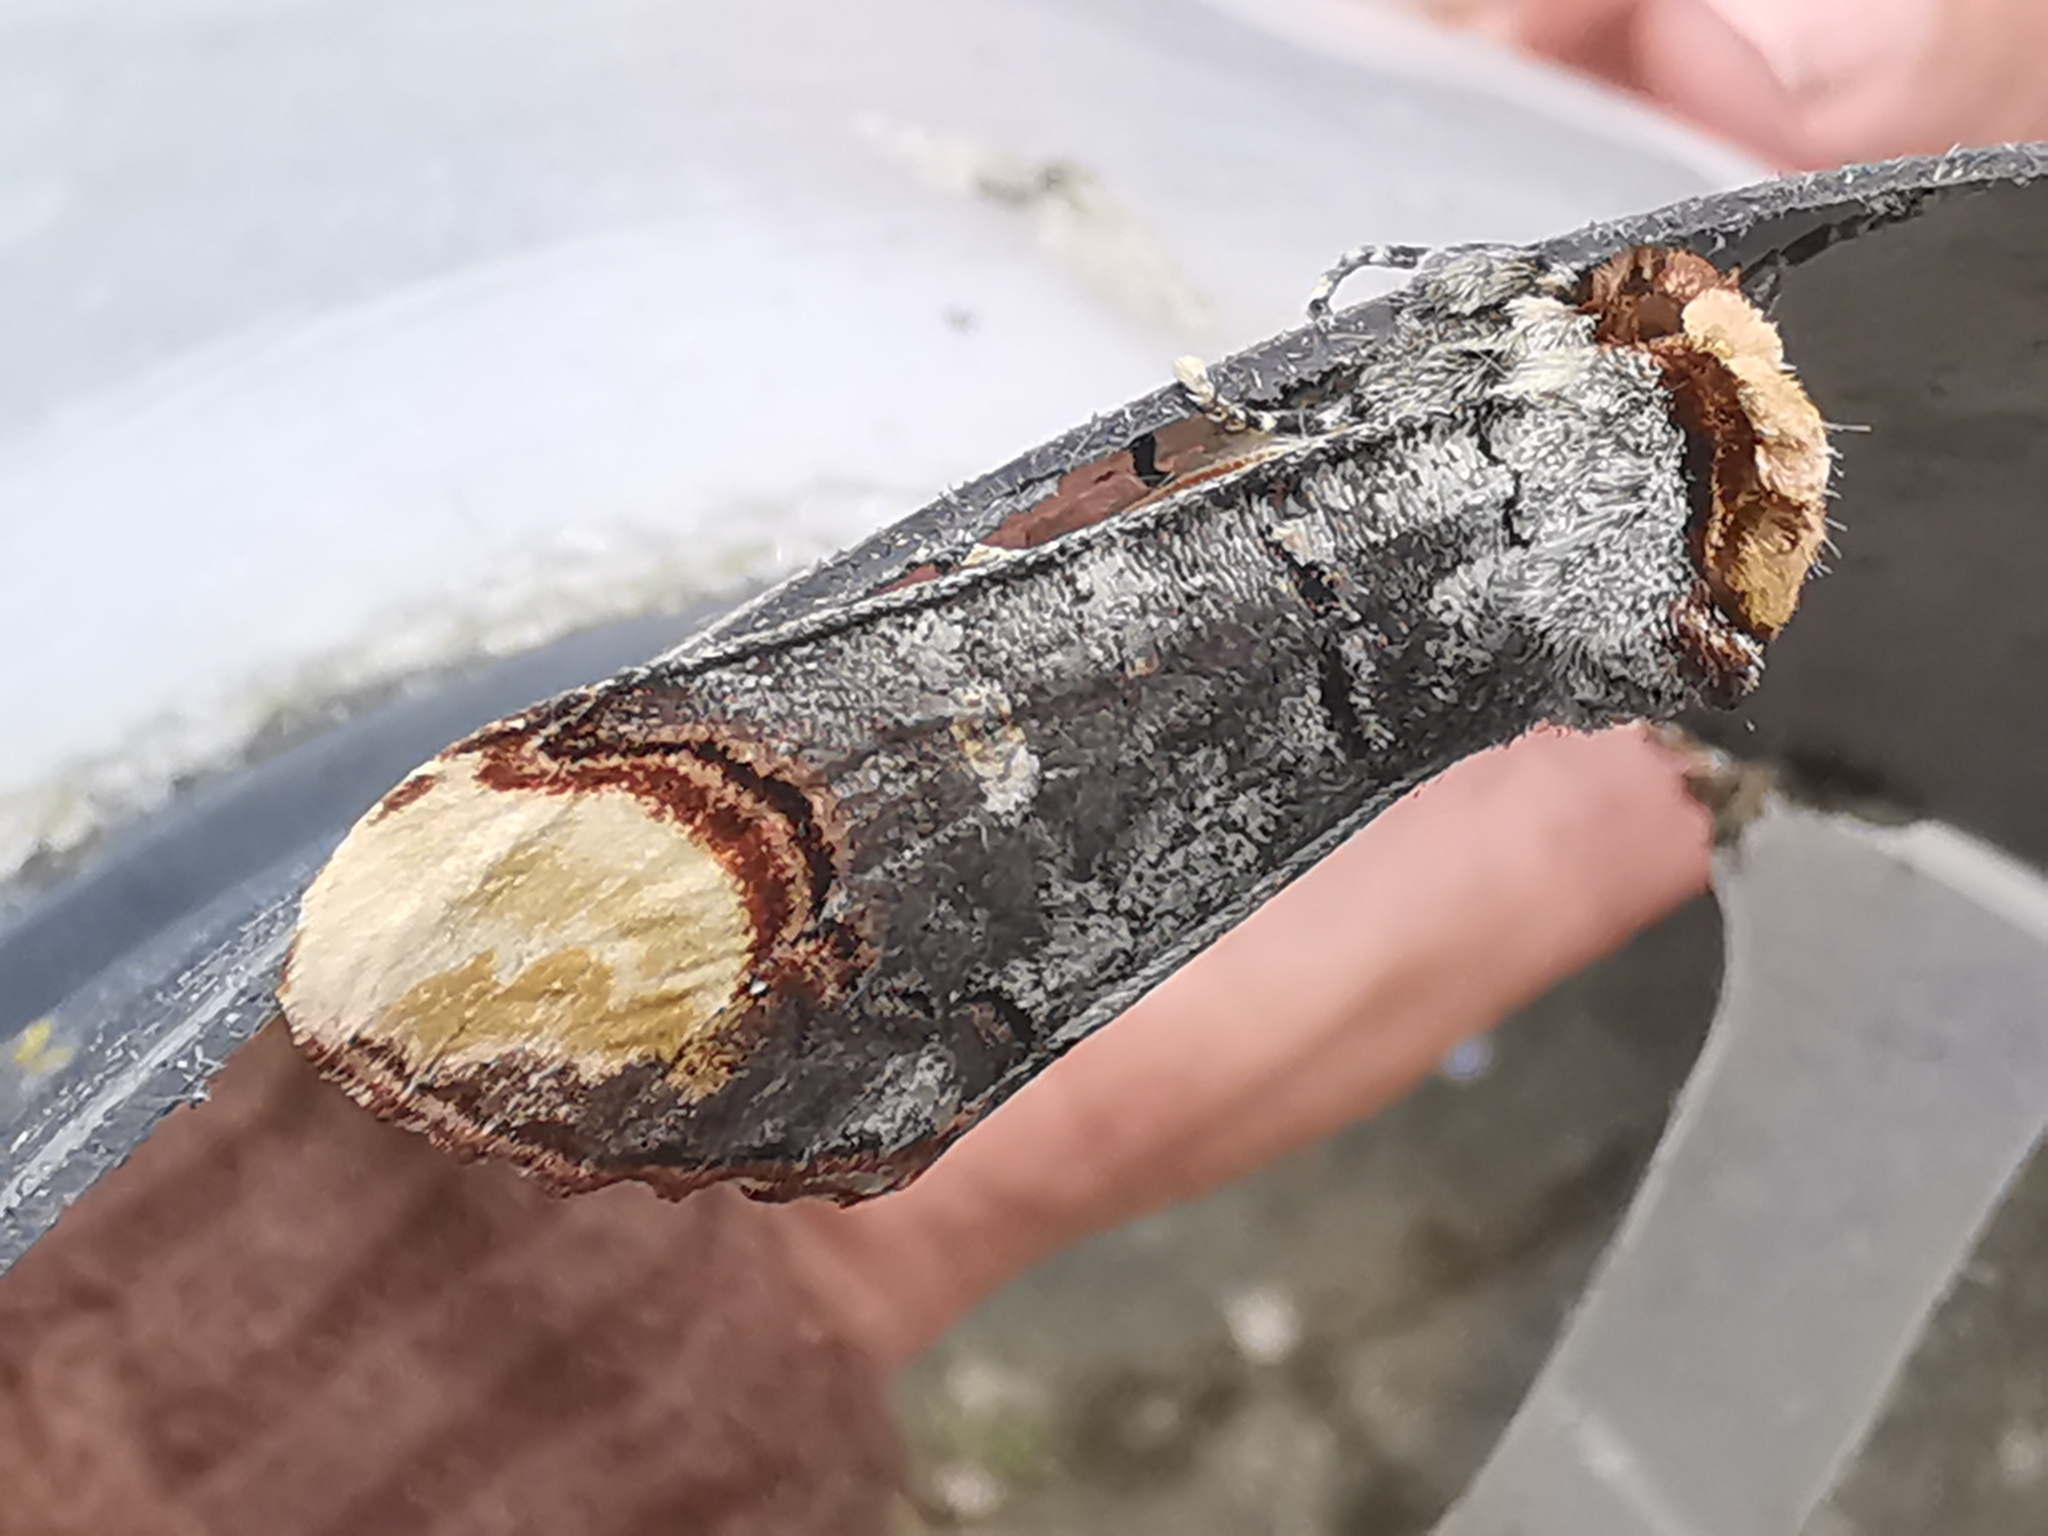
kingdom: Animalia
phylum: Arthropoda
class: Insecta
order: Lepidoptera
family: Notodontidae
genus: Phalera
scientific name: Phalera bucephala
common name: Buff-tip
